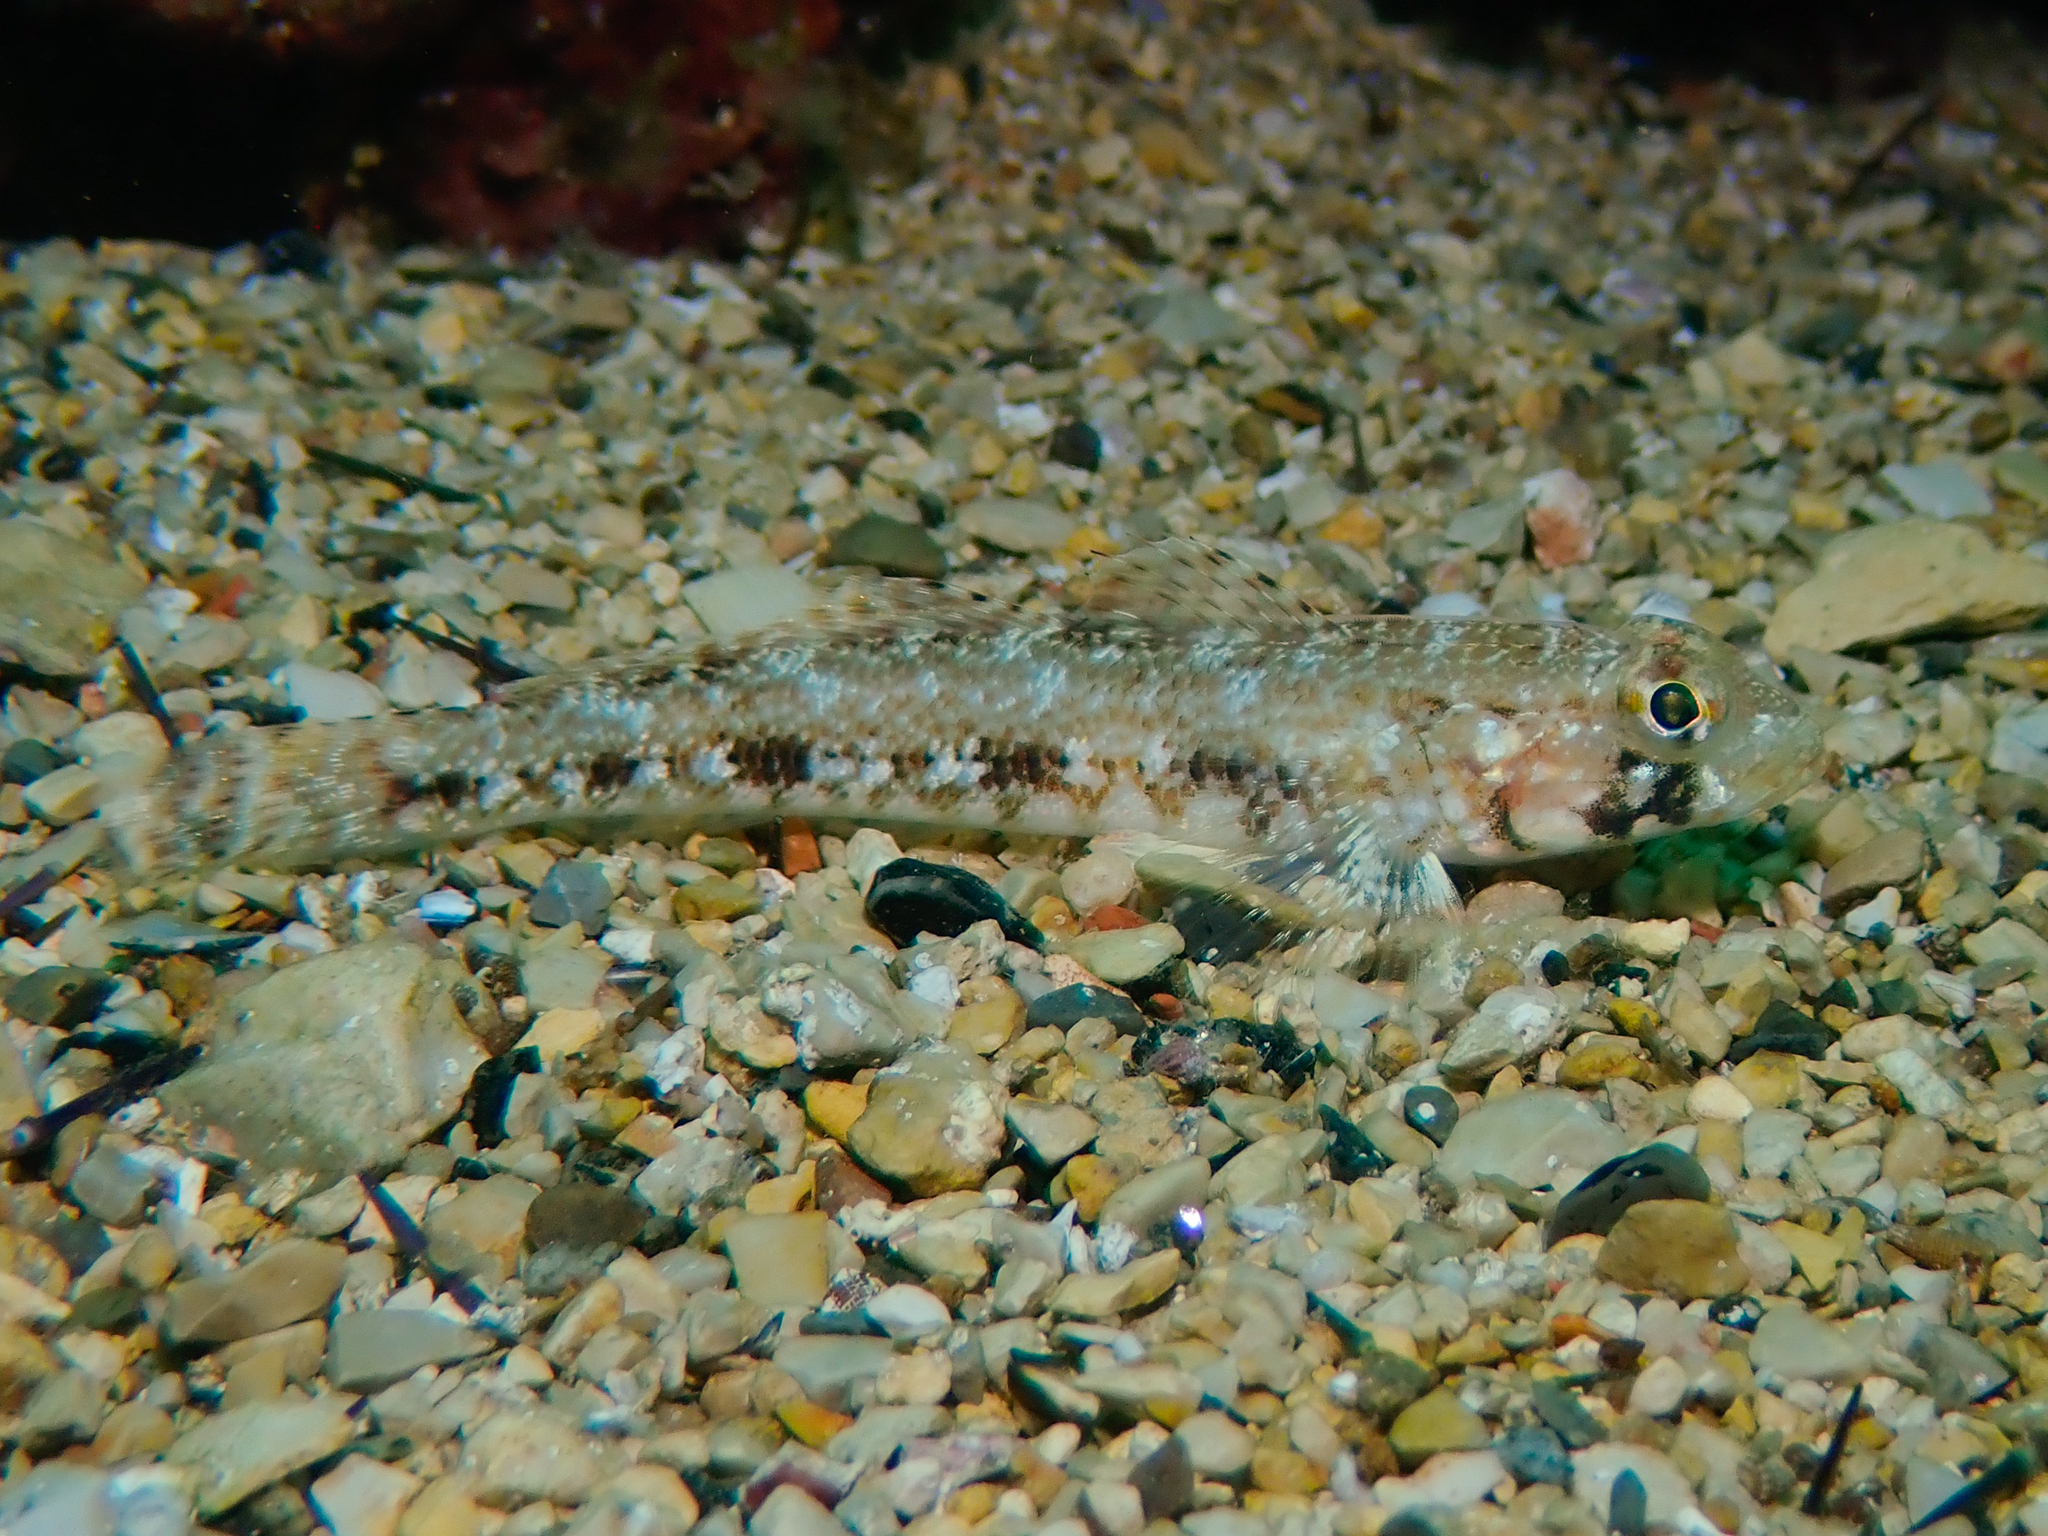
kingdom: Animalia
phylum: Chordata
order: Perciformes
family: Gobiidae
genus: Gobius
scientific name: Gobius geniporus
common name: Slender goby
